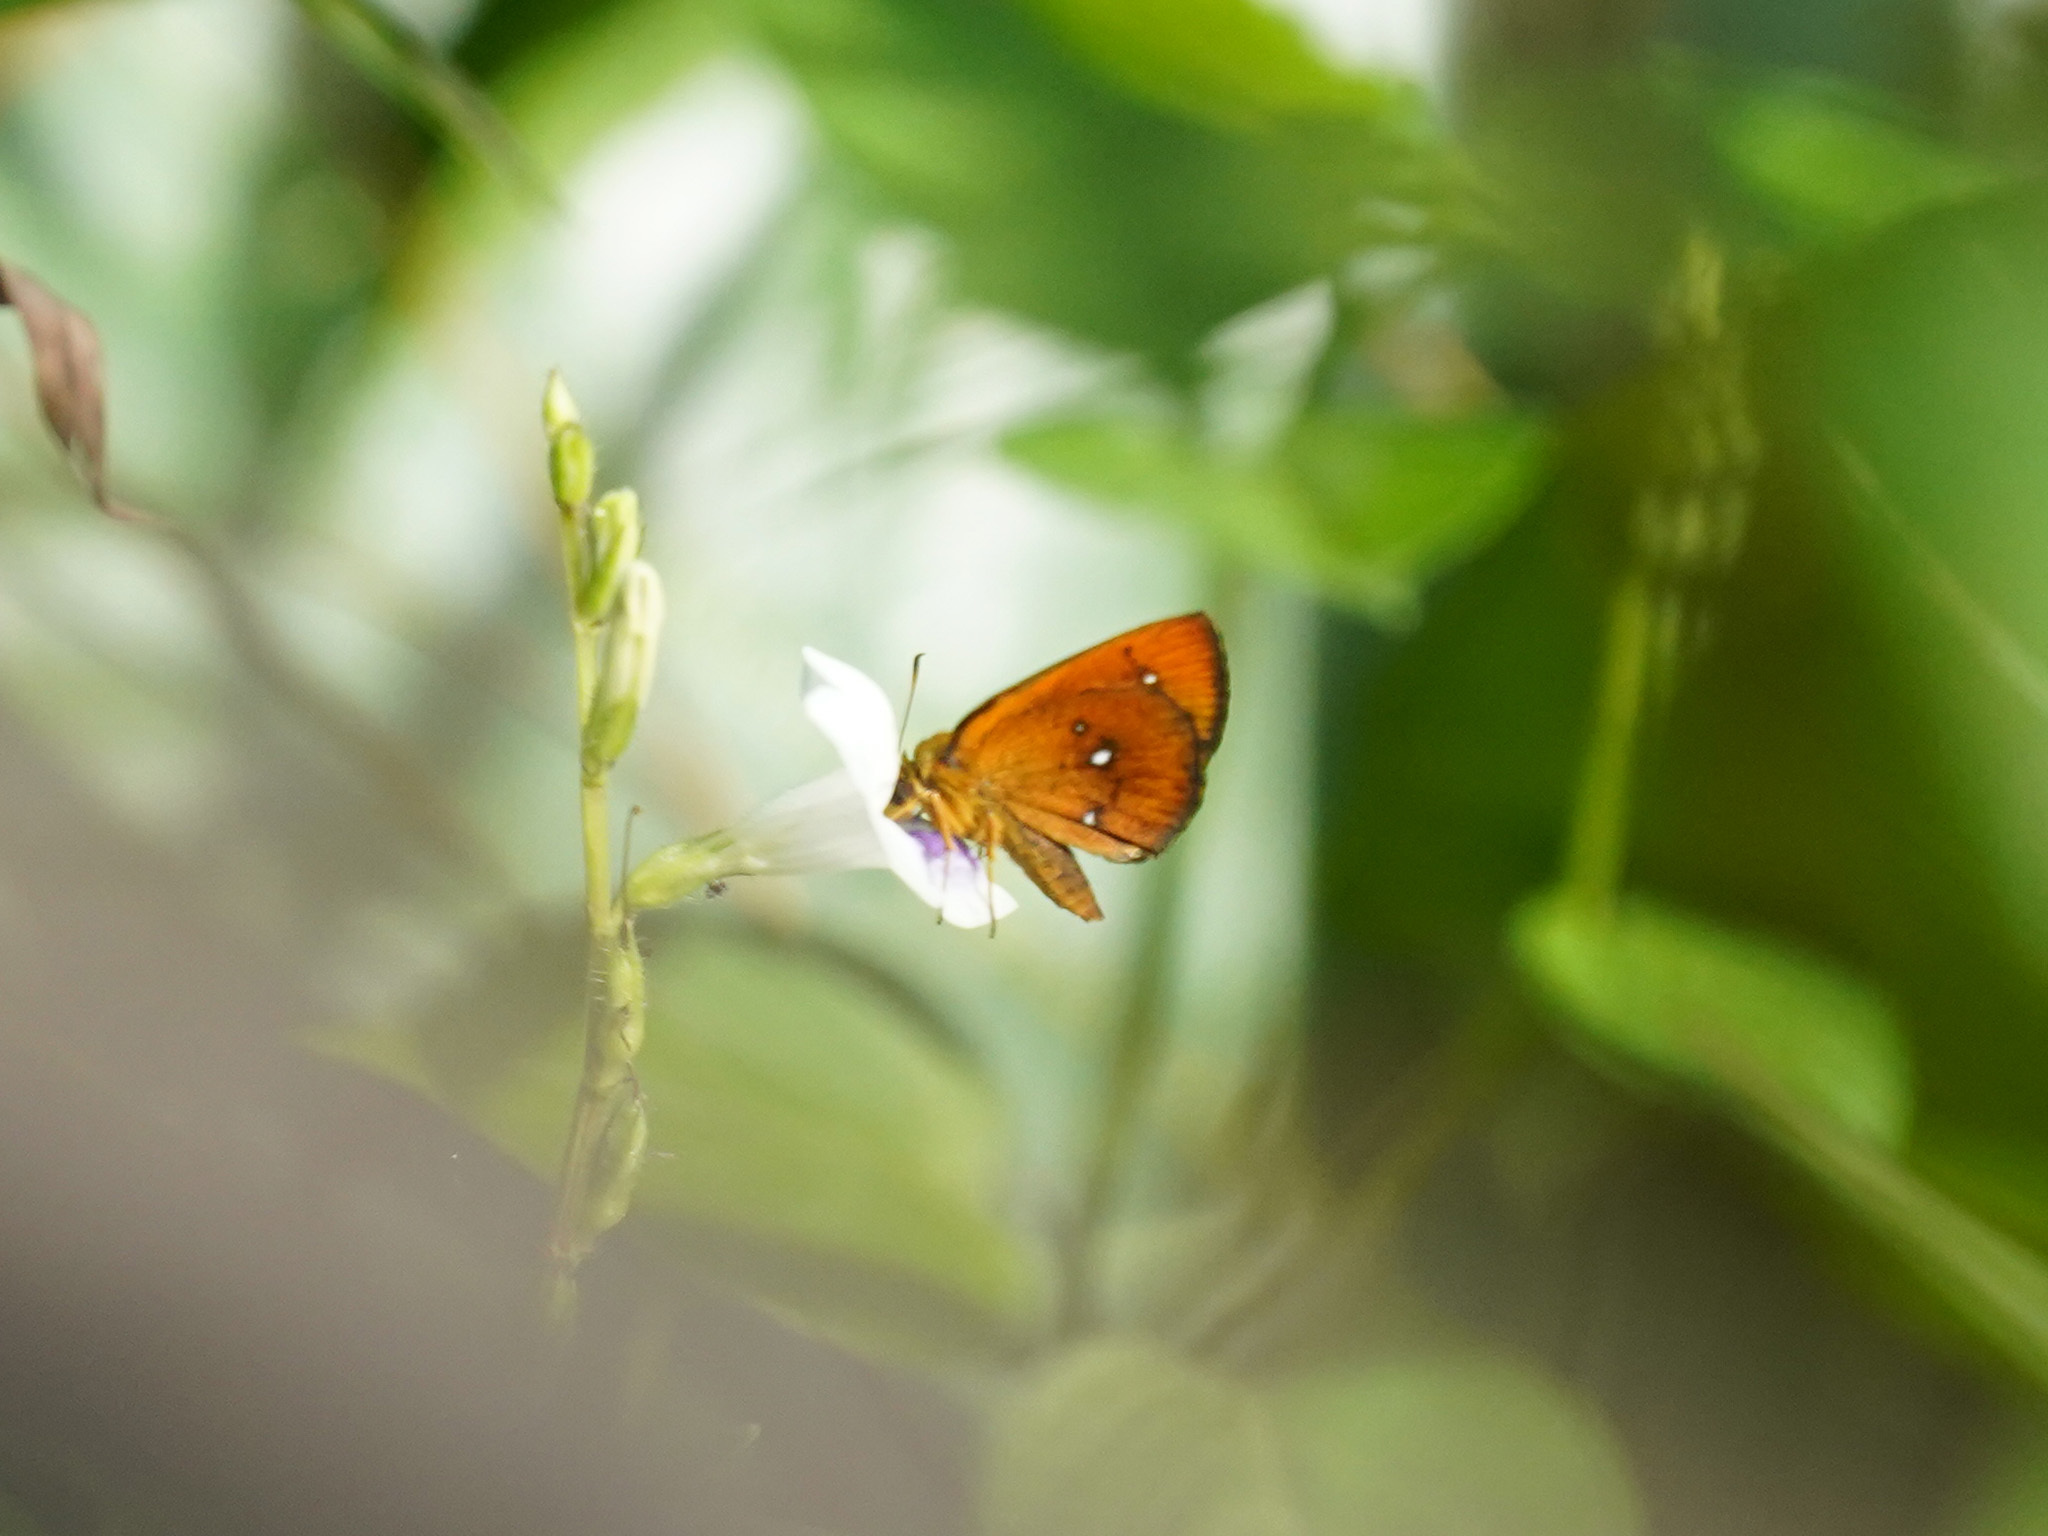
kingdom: Animalia
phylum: Arthropoda
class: Insecta
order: Lepidoptera
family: Hesperiidae
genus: Iambrix
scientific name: Iambrix salsala
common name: Chestnut bob
